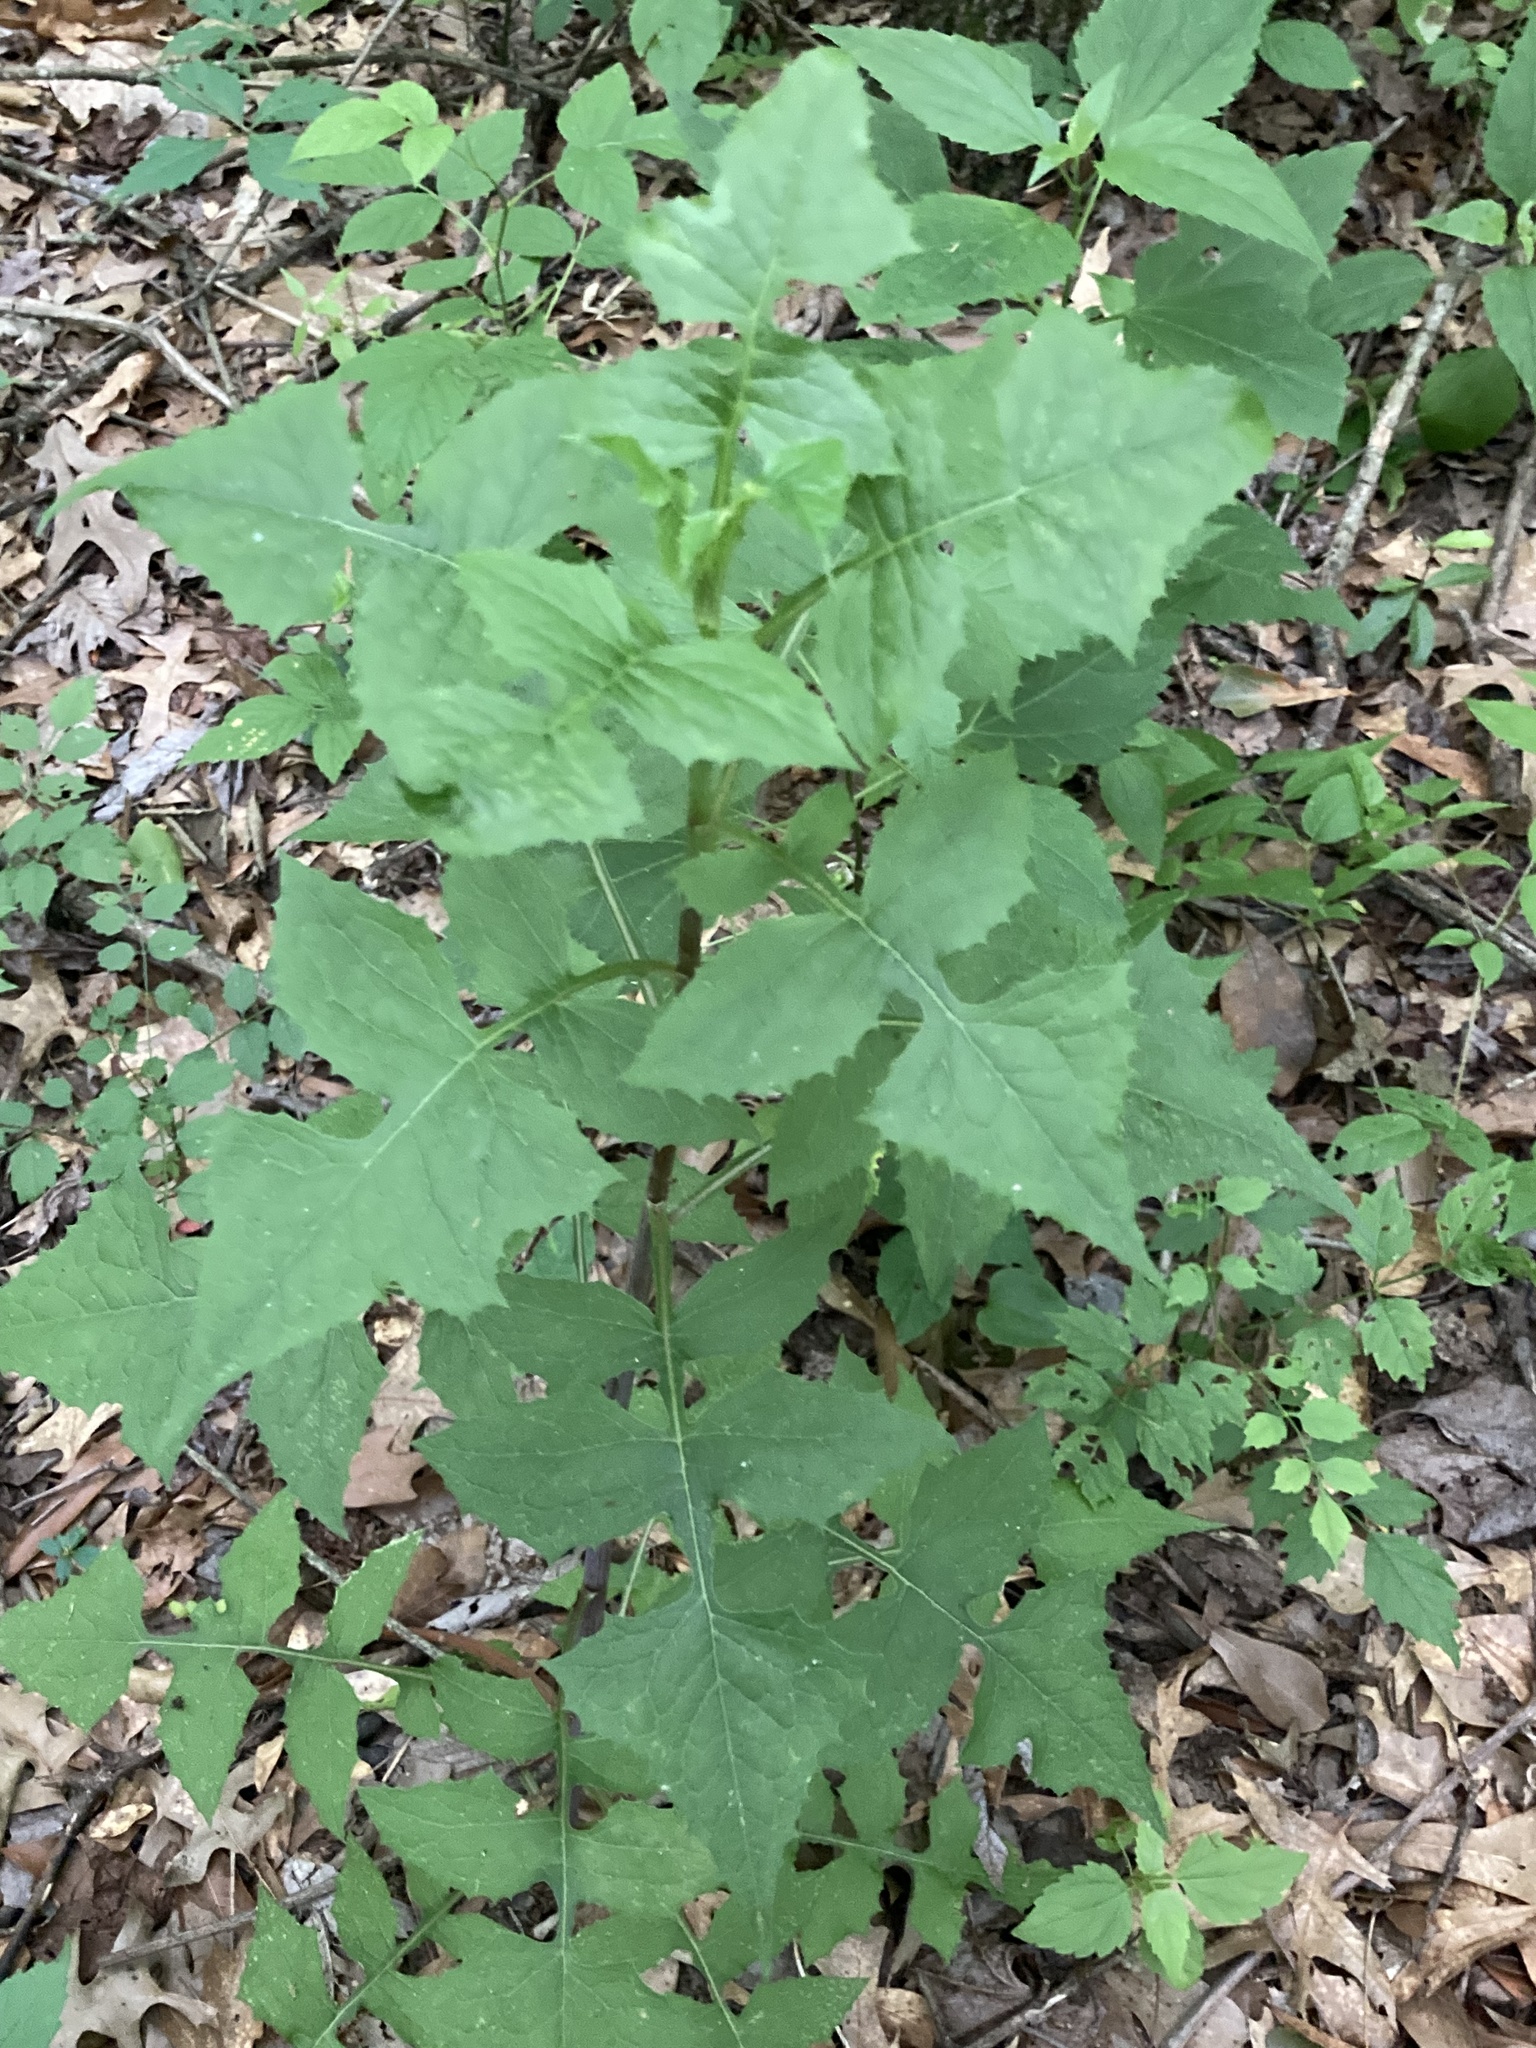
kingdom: Plantae
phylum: Tracheophyta
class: Magnoliopsida
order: Asterales
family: Asteraceae
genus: Lactuca
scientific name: Lactuca floridana
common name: Woodland lettuce
